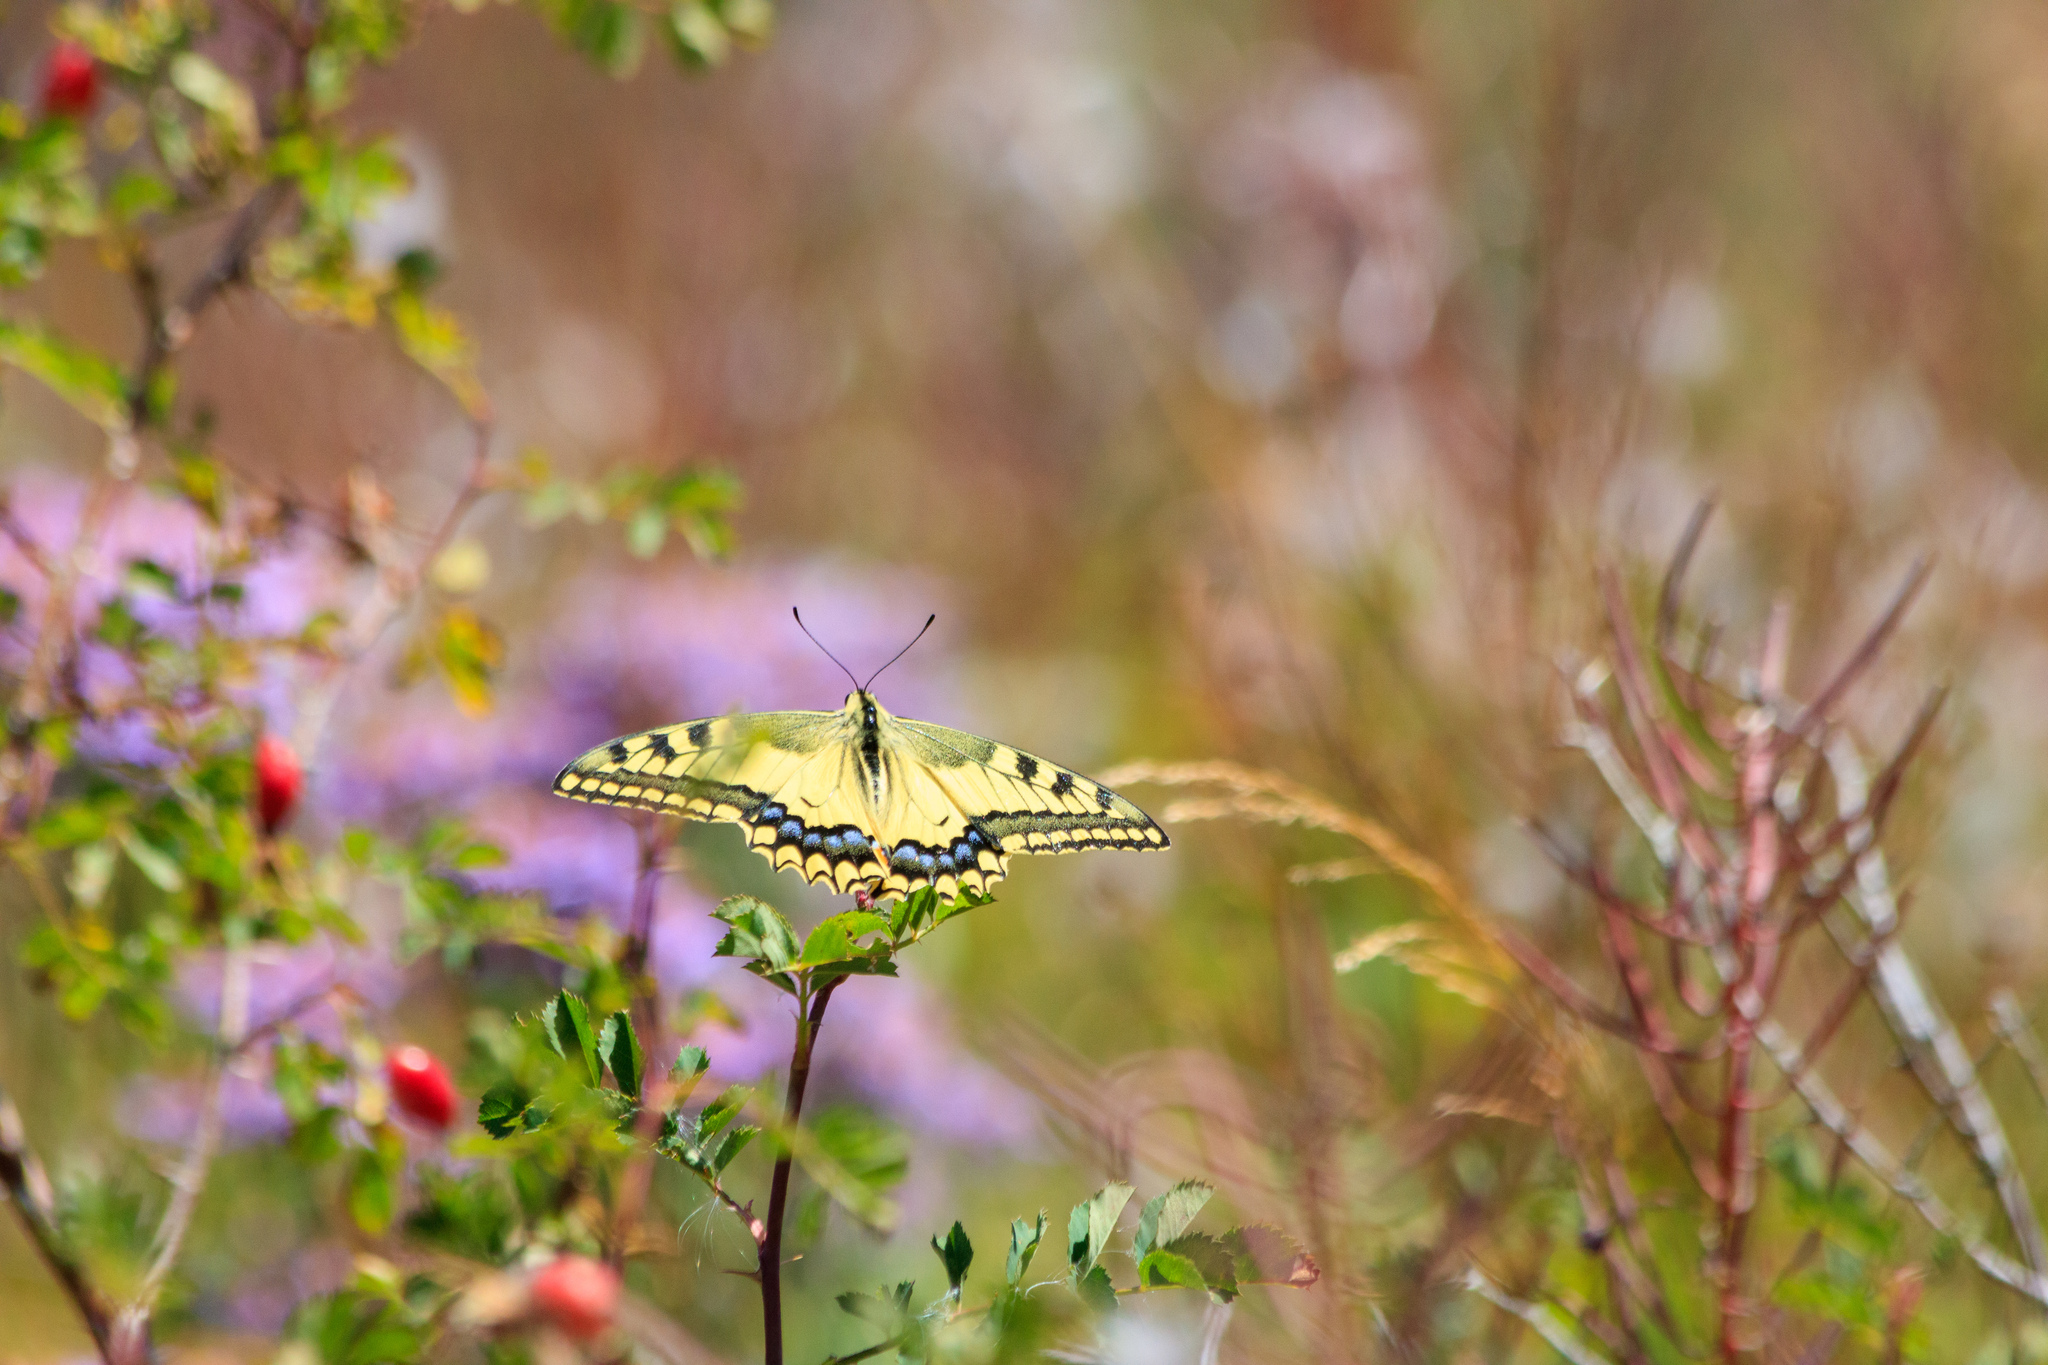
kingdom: Animalia
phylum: Arthropoda
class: Insecta
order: Lepidoptera
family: Papilionidae
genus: Papilio
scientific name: Papilio machaon
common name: Swallowtail
